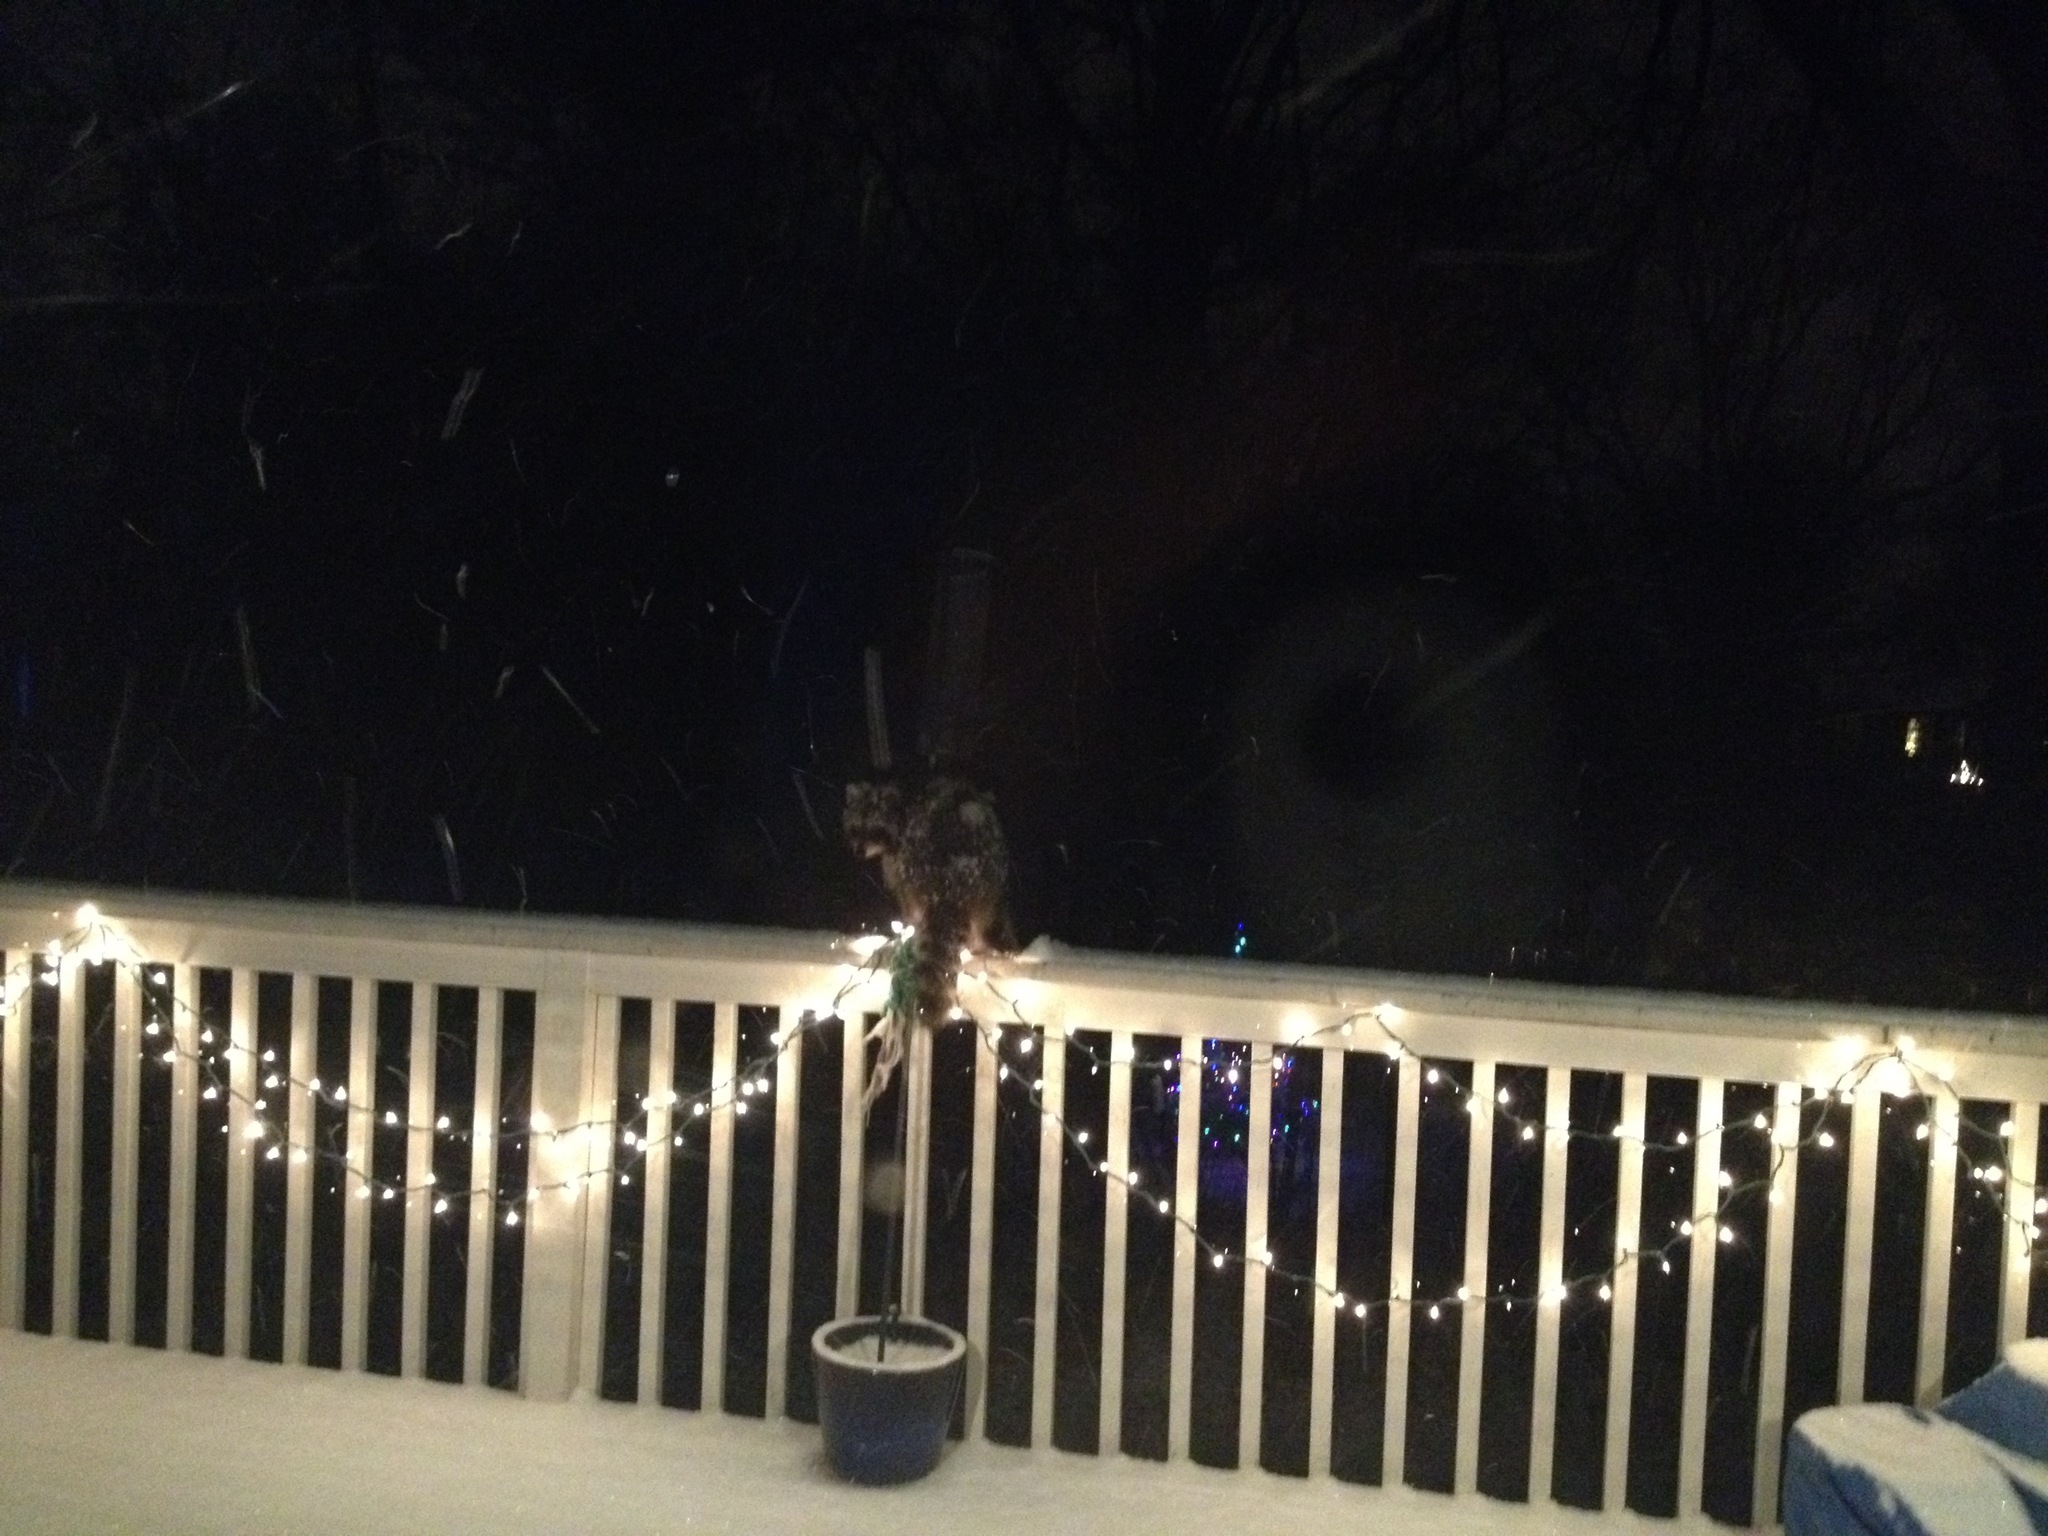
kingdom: Animalia
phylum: Chordata
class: Mammalia
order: Carnivora
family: Procyonidae
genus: Procyon
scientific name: Procyon lotor
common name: Raccoon
